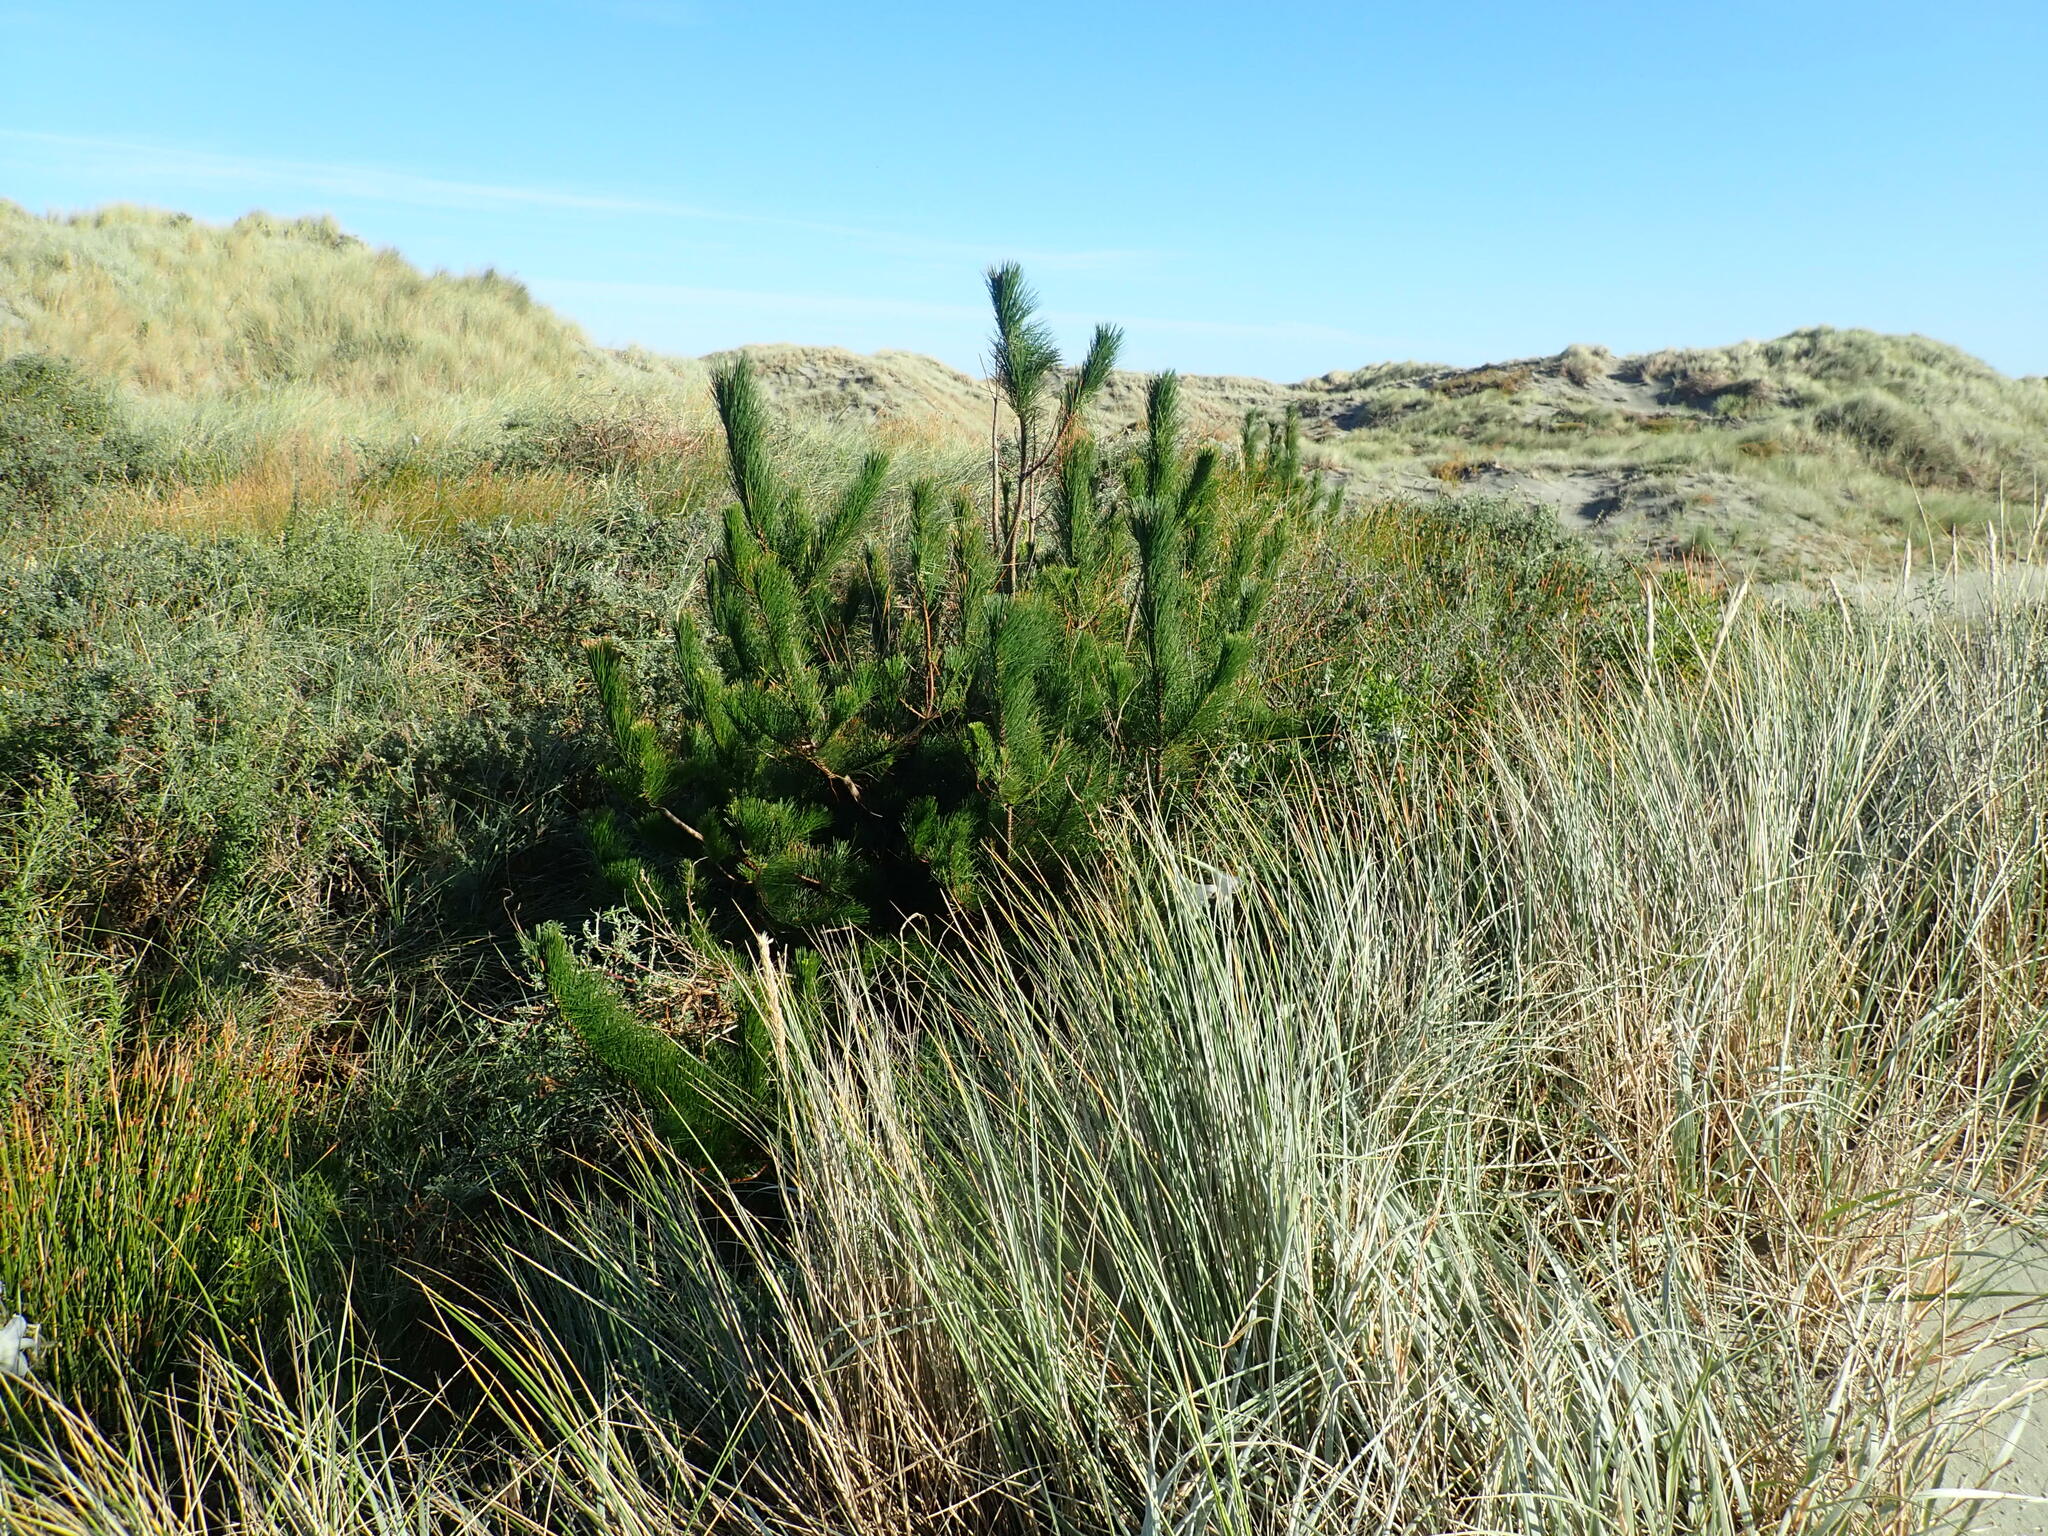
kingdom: Plantae
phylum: Tracheophyta
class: Pinopsida
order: Pinales
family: Pinaceae
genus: Pinus
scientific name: Pinus radiata
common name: Monterey pine
